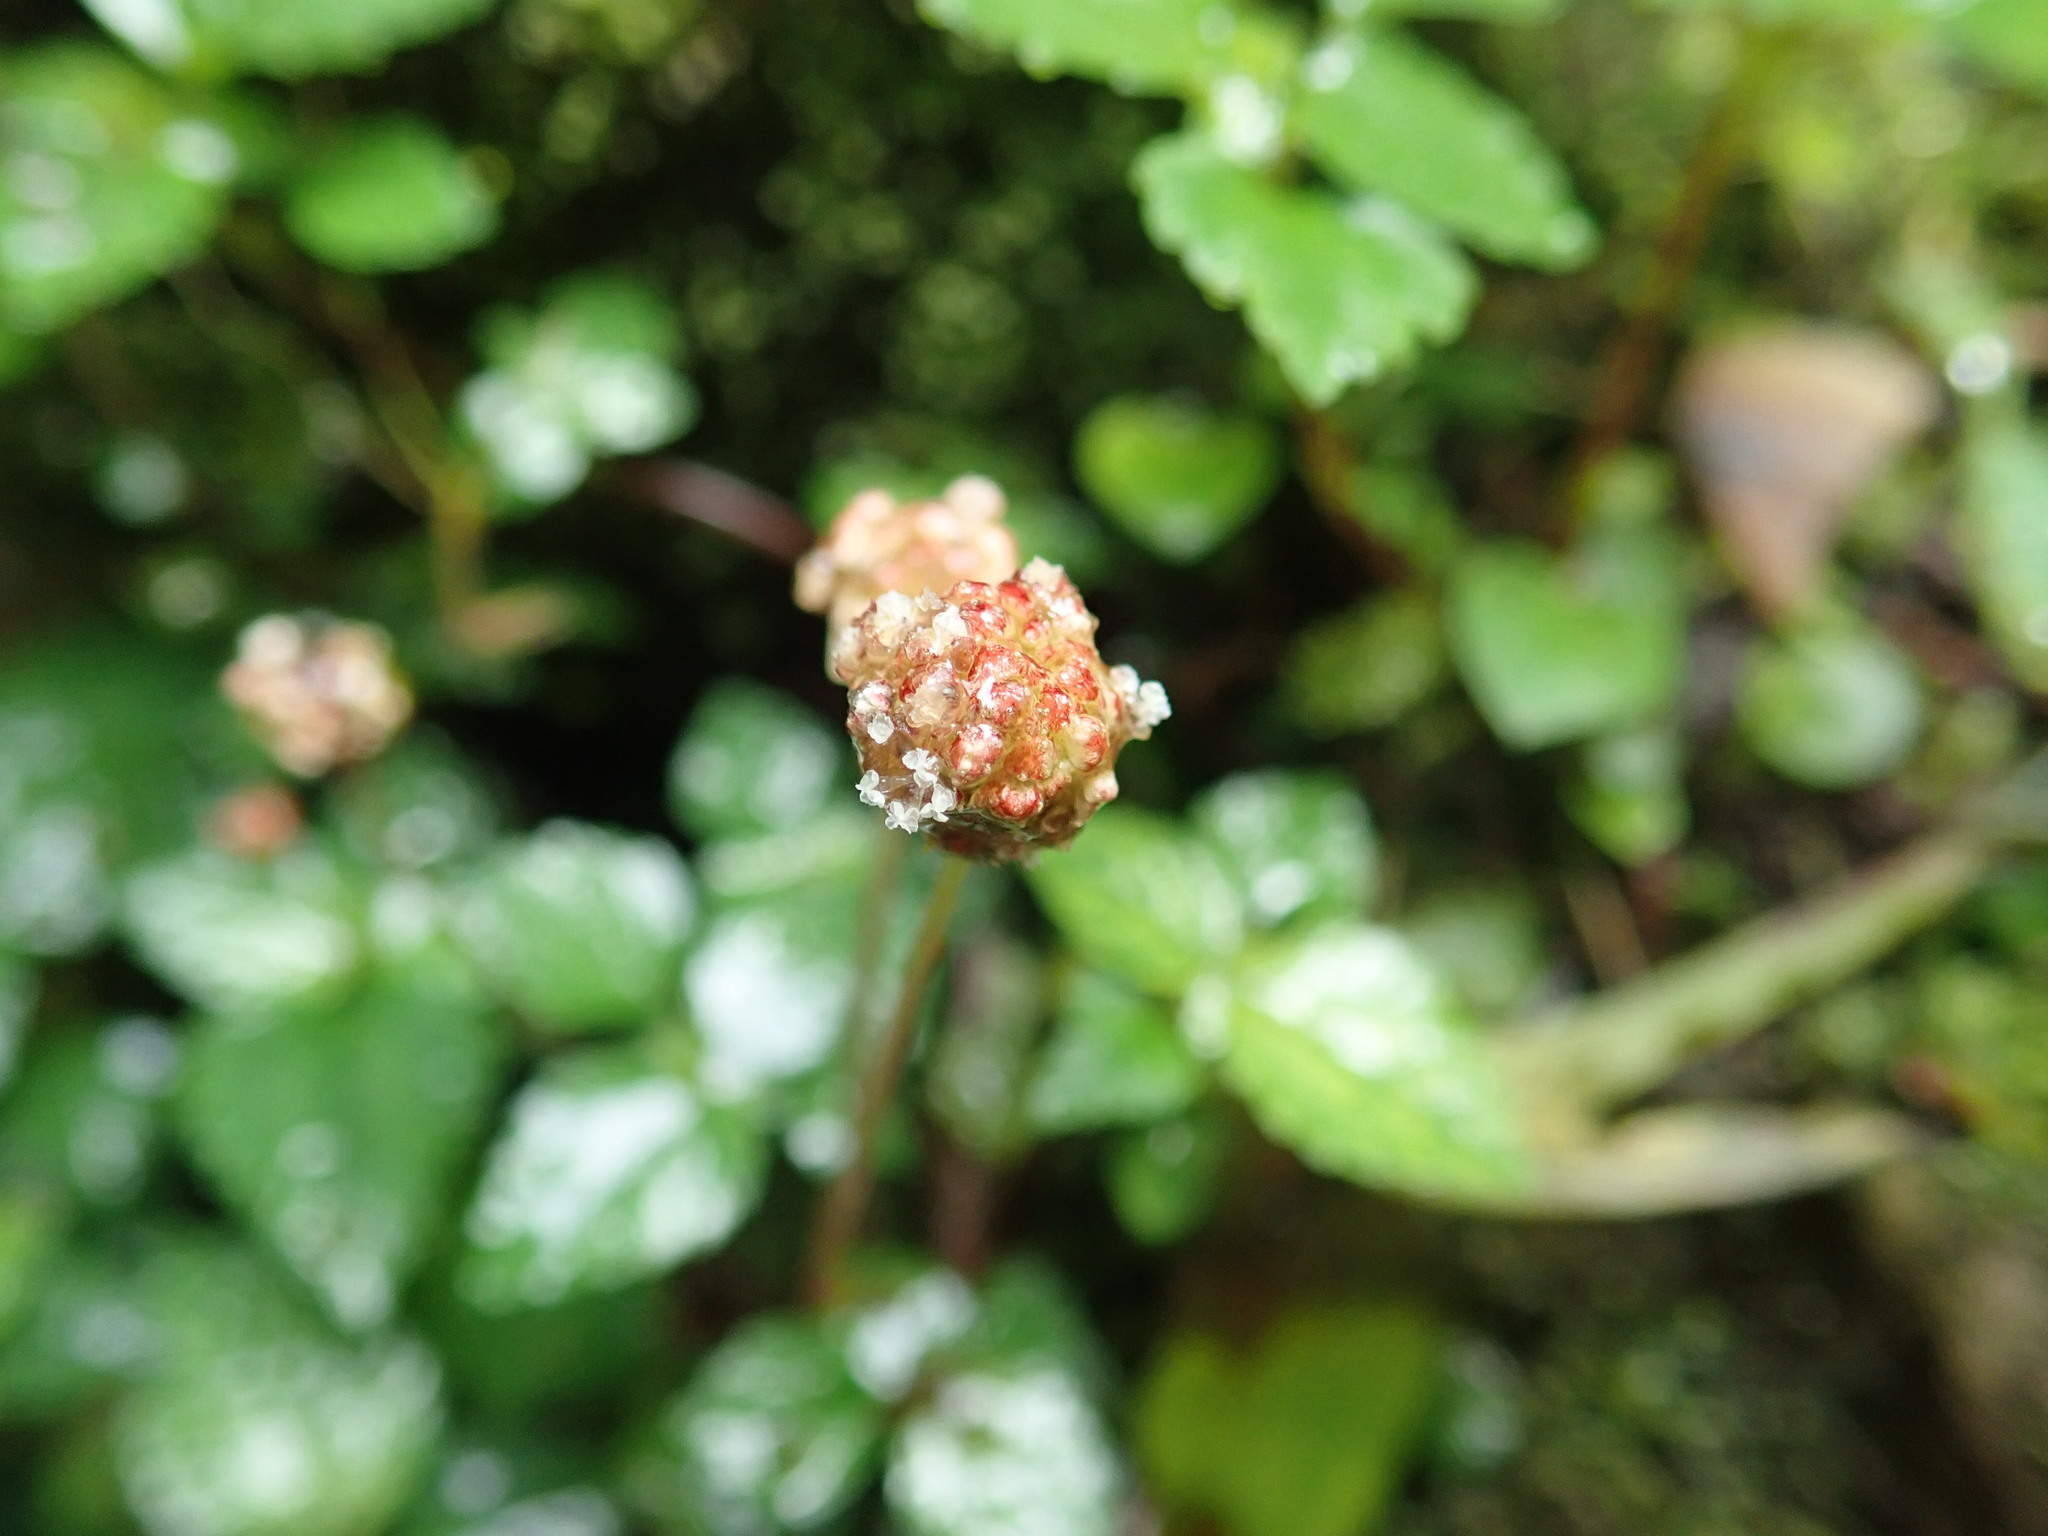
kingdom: Plantae
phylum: Tracheophyta
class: Magnoliopsida
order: Rosales
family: Urticaceae
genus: Lecanthus
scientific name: Lecanthus peduncularis
